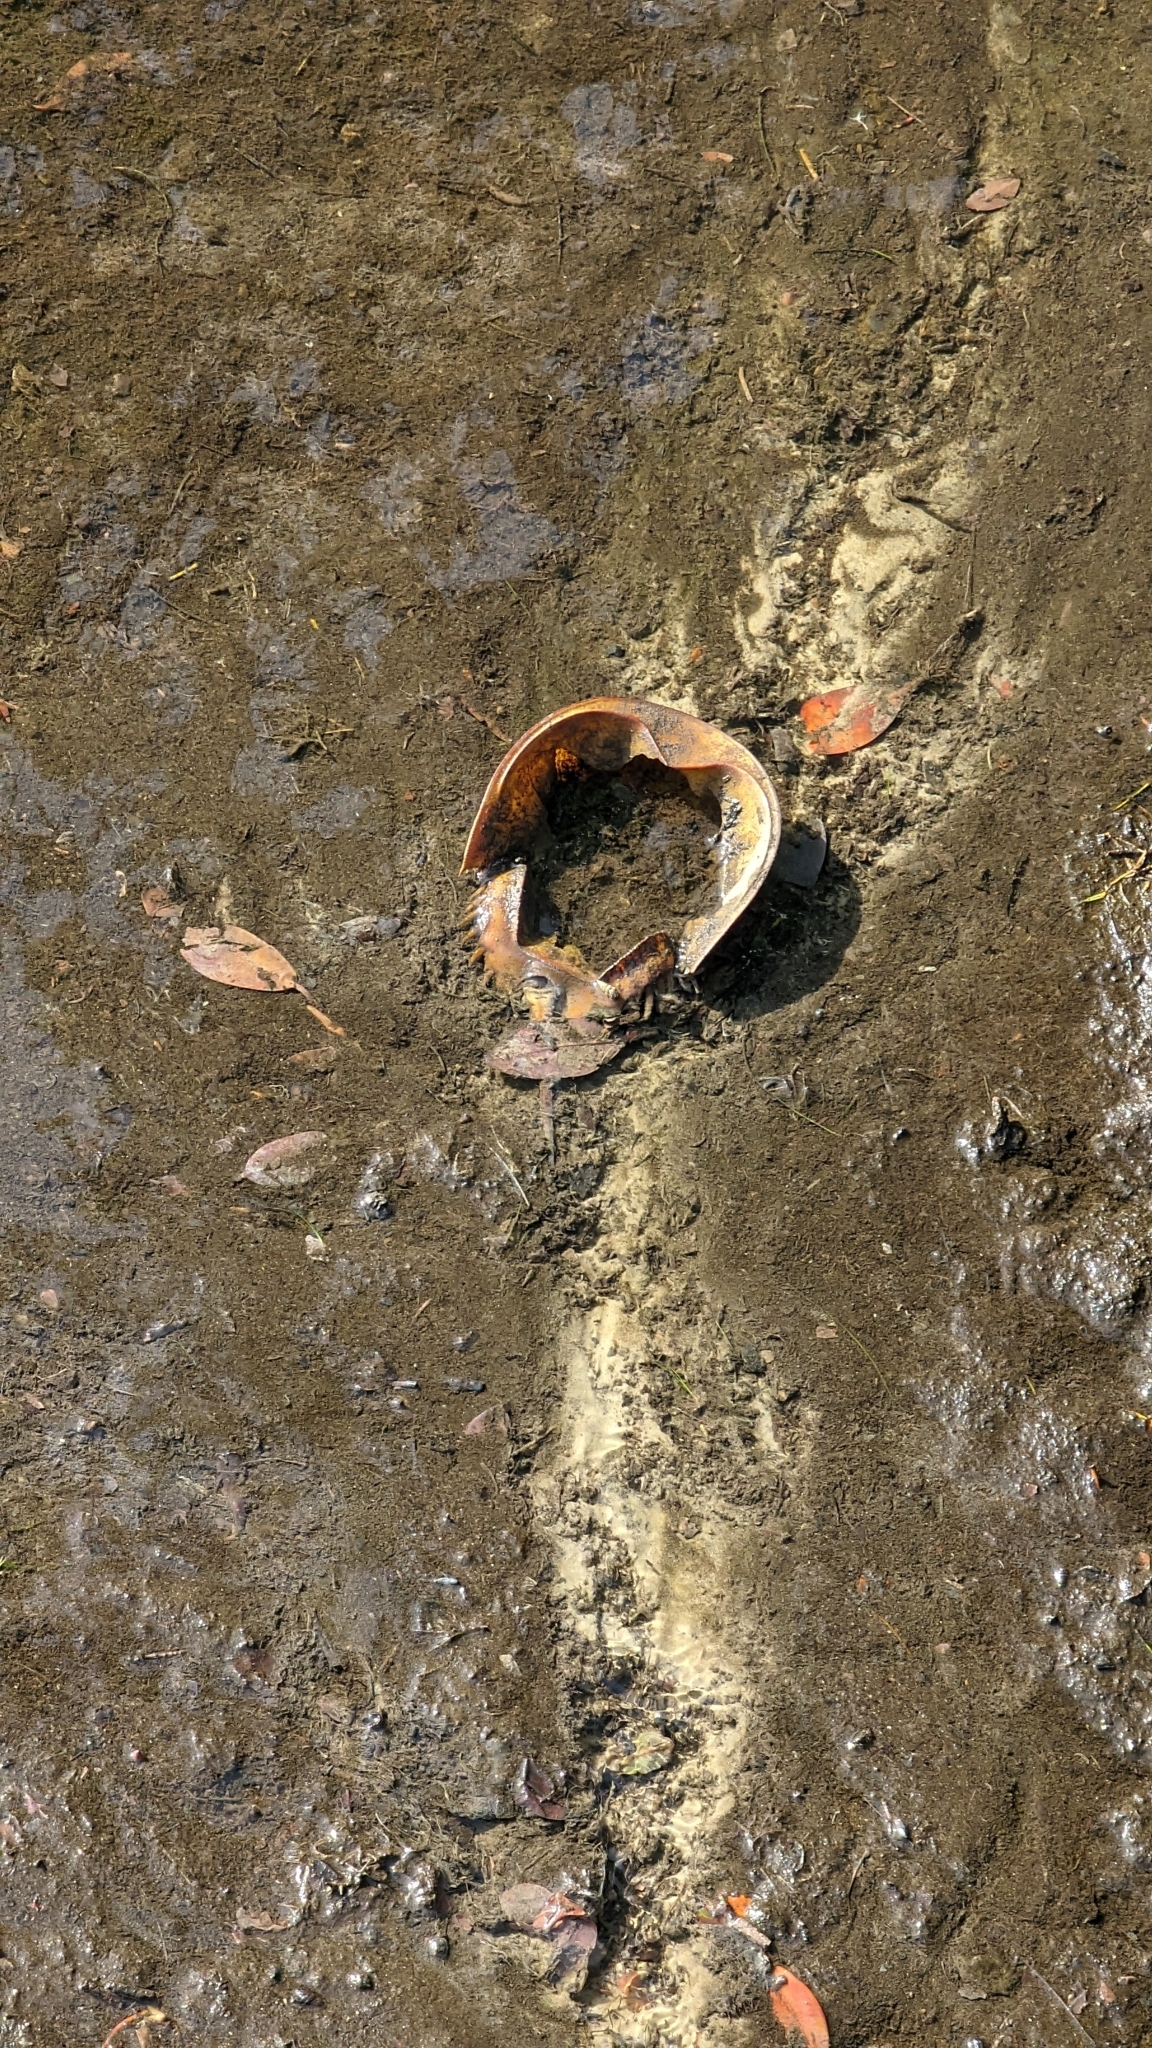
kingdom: Animalia
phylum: Arthropoda
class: Merostomata
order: Xiphosurida
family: Limulidae
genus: Limulus
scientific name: Limulus polyphemus
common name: Horseshoe crab
